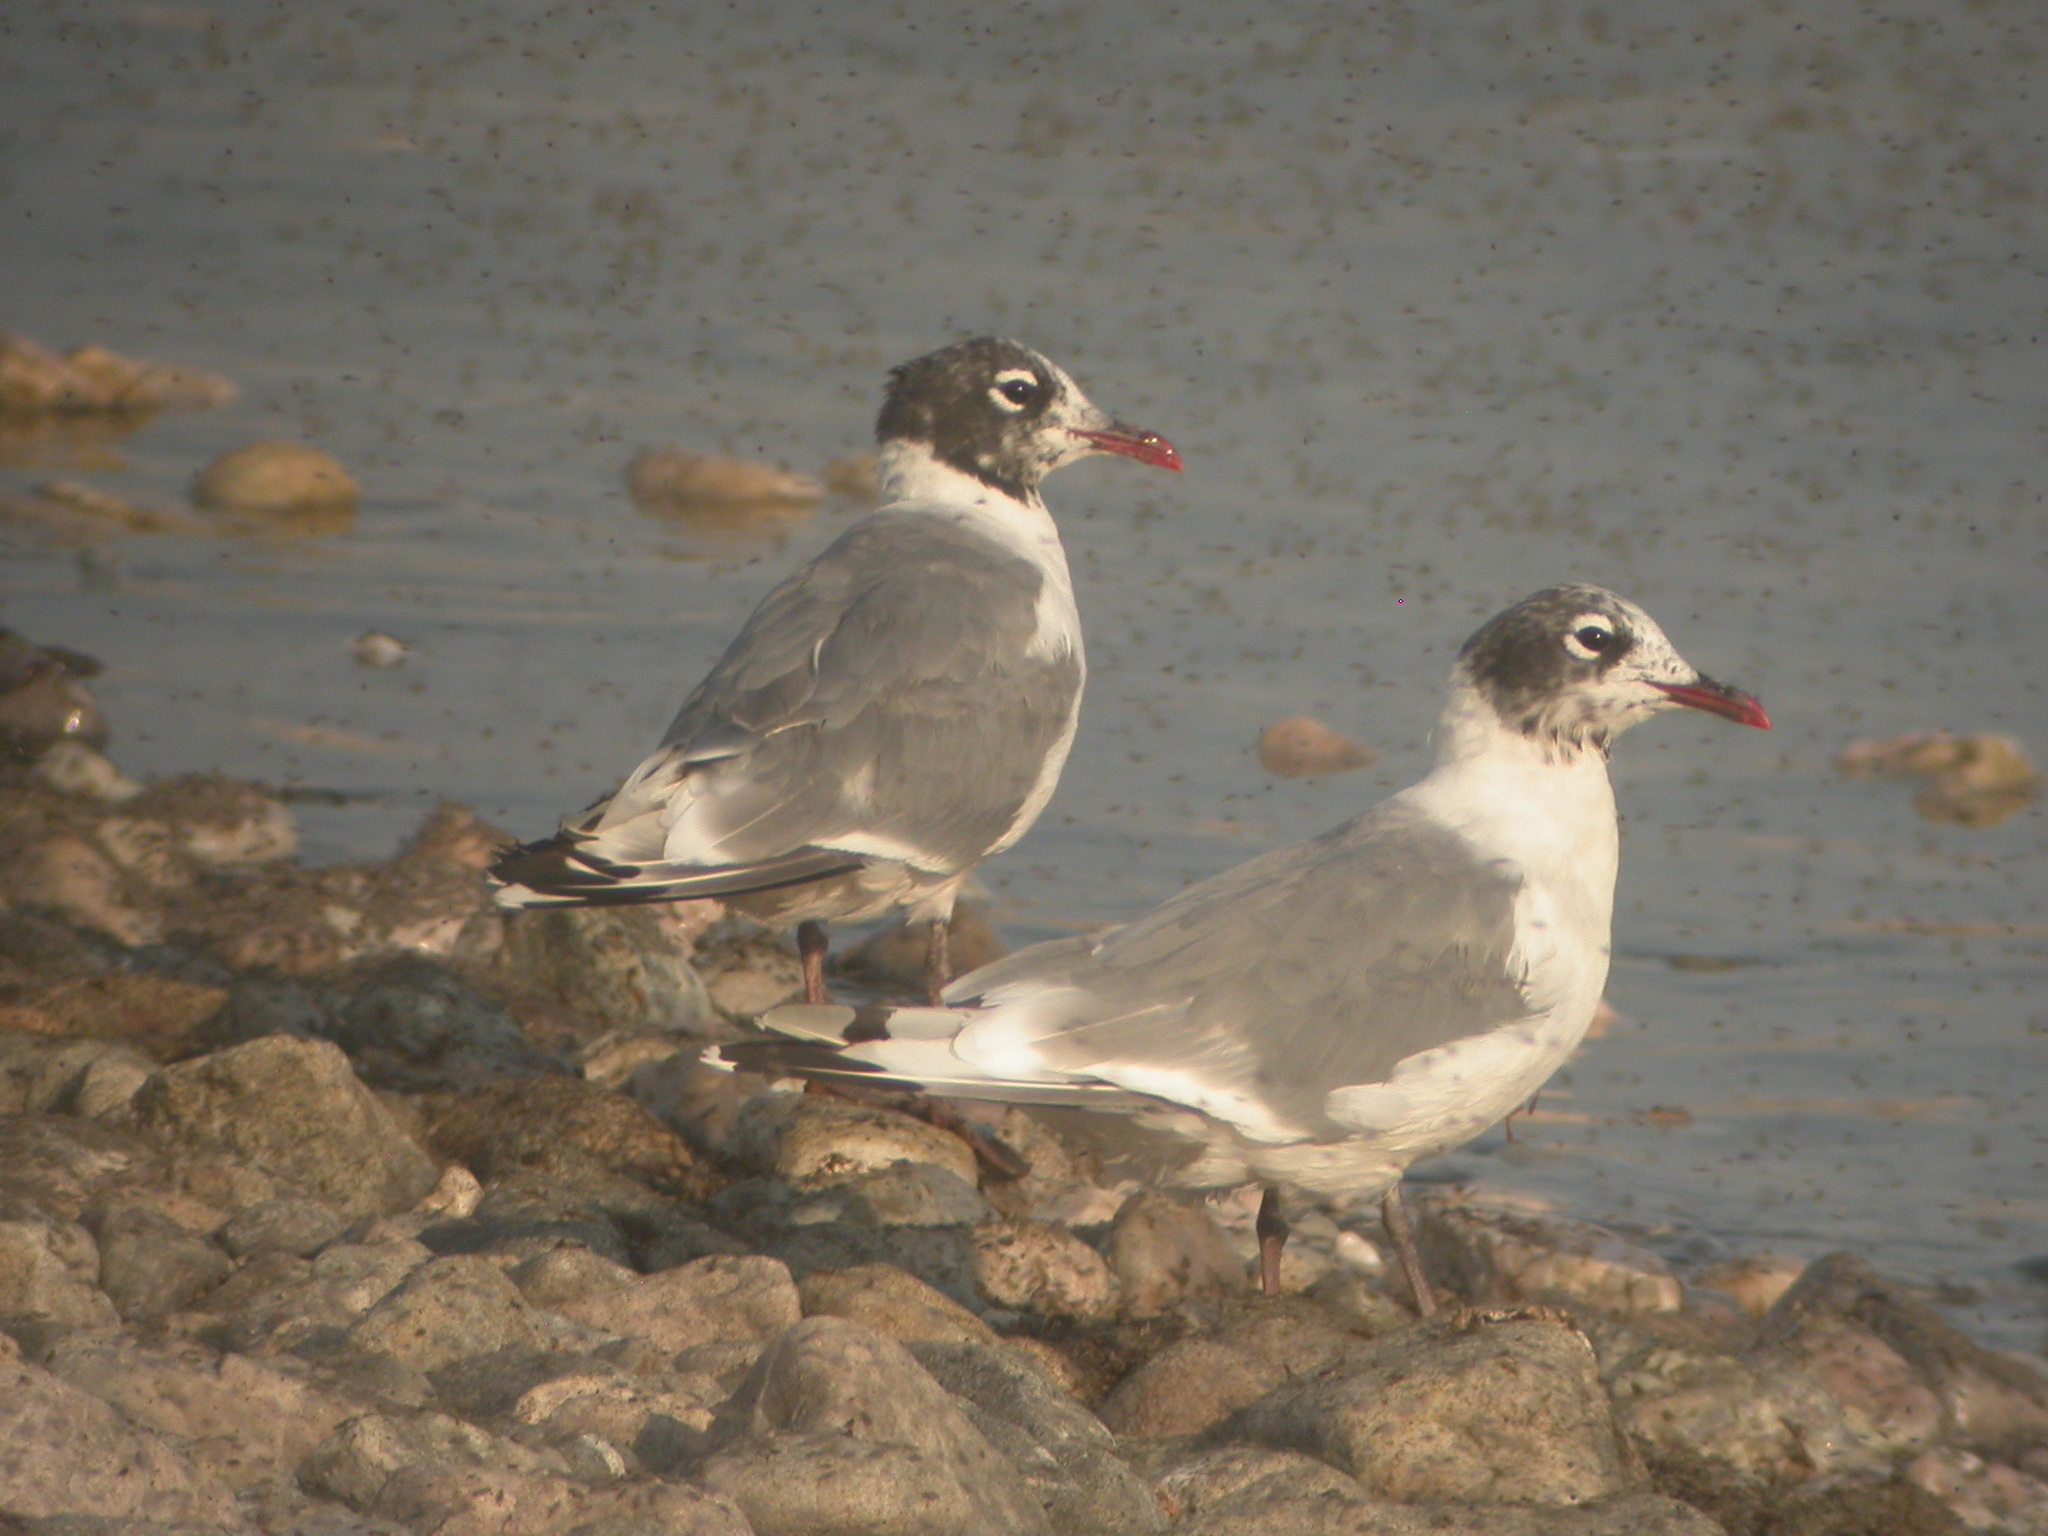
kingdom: Animalia
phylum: Chordata
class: Aves
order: Charadriiformes
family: Laridae
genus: Leucophaeus
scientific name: Leucophaeus pipixcan
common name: Franklin's gull
